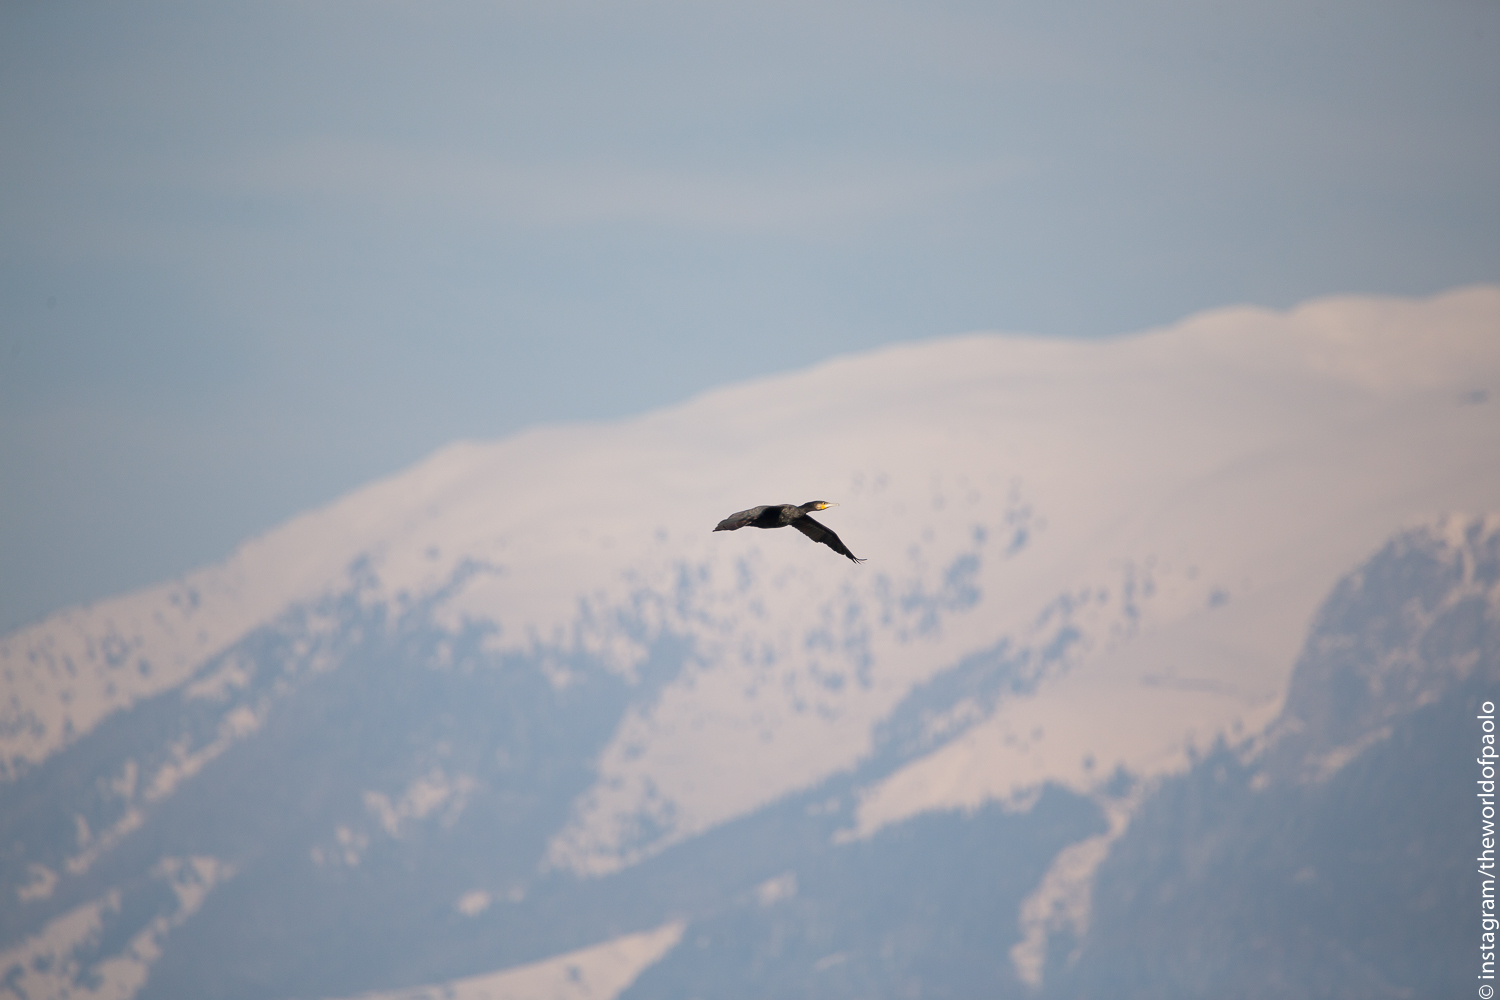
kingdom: Animalia
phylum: Chordata
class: Aves
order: Suliformes
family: Phalacrocoracidae
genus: Phalacrocorax
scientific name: Phalacrocorax carbo
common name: Great cormorant
